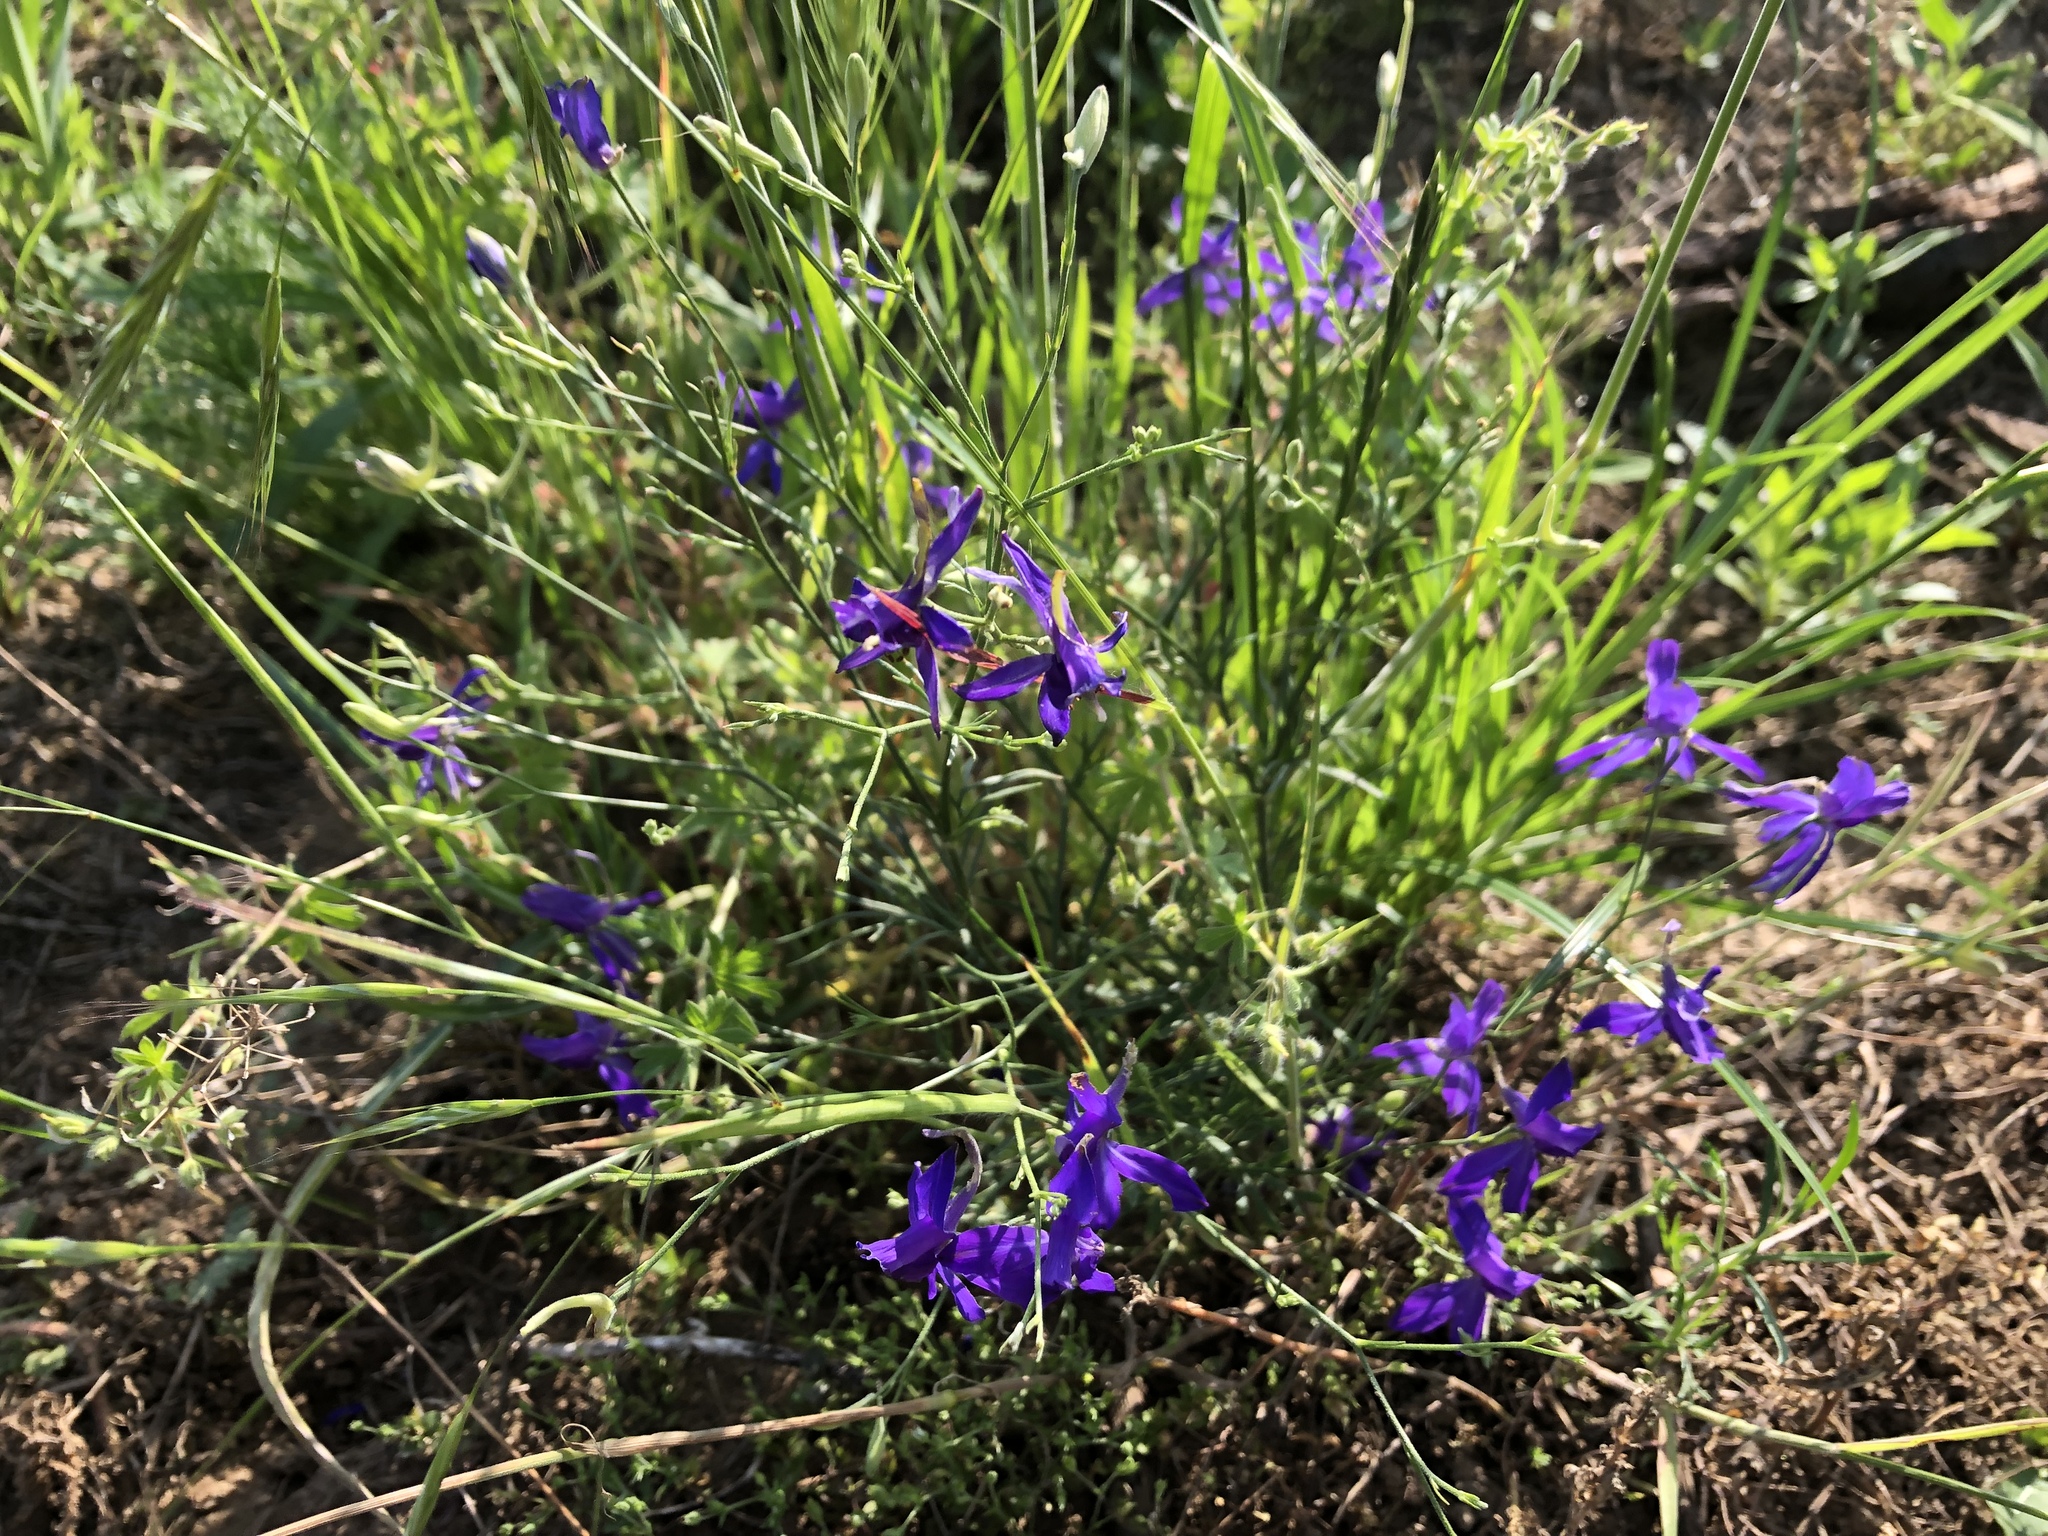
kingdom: Plantae
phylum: Tracheophyta
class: Magnoliopsida
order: Ranunculales
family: Ranunculaceae
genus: Delphinium
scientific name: Delphinium consolida
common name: Branching larkspur
